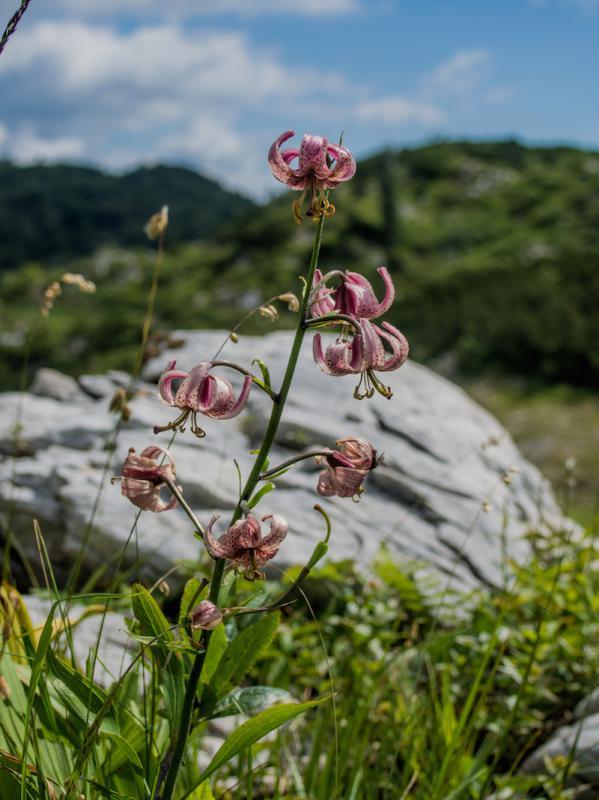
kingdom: Plantae
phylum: Tracheophyta
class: Liliopsida
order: Liliales
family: Liliaceae
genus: Lilium
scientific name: Lilium martagon
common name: Martagon lily
